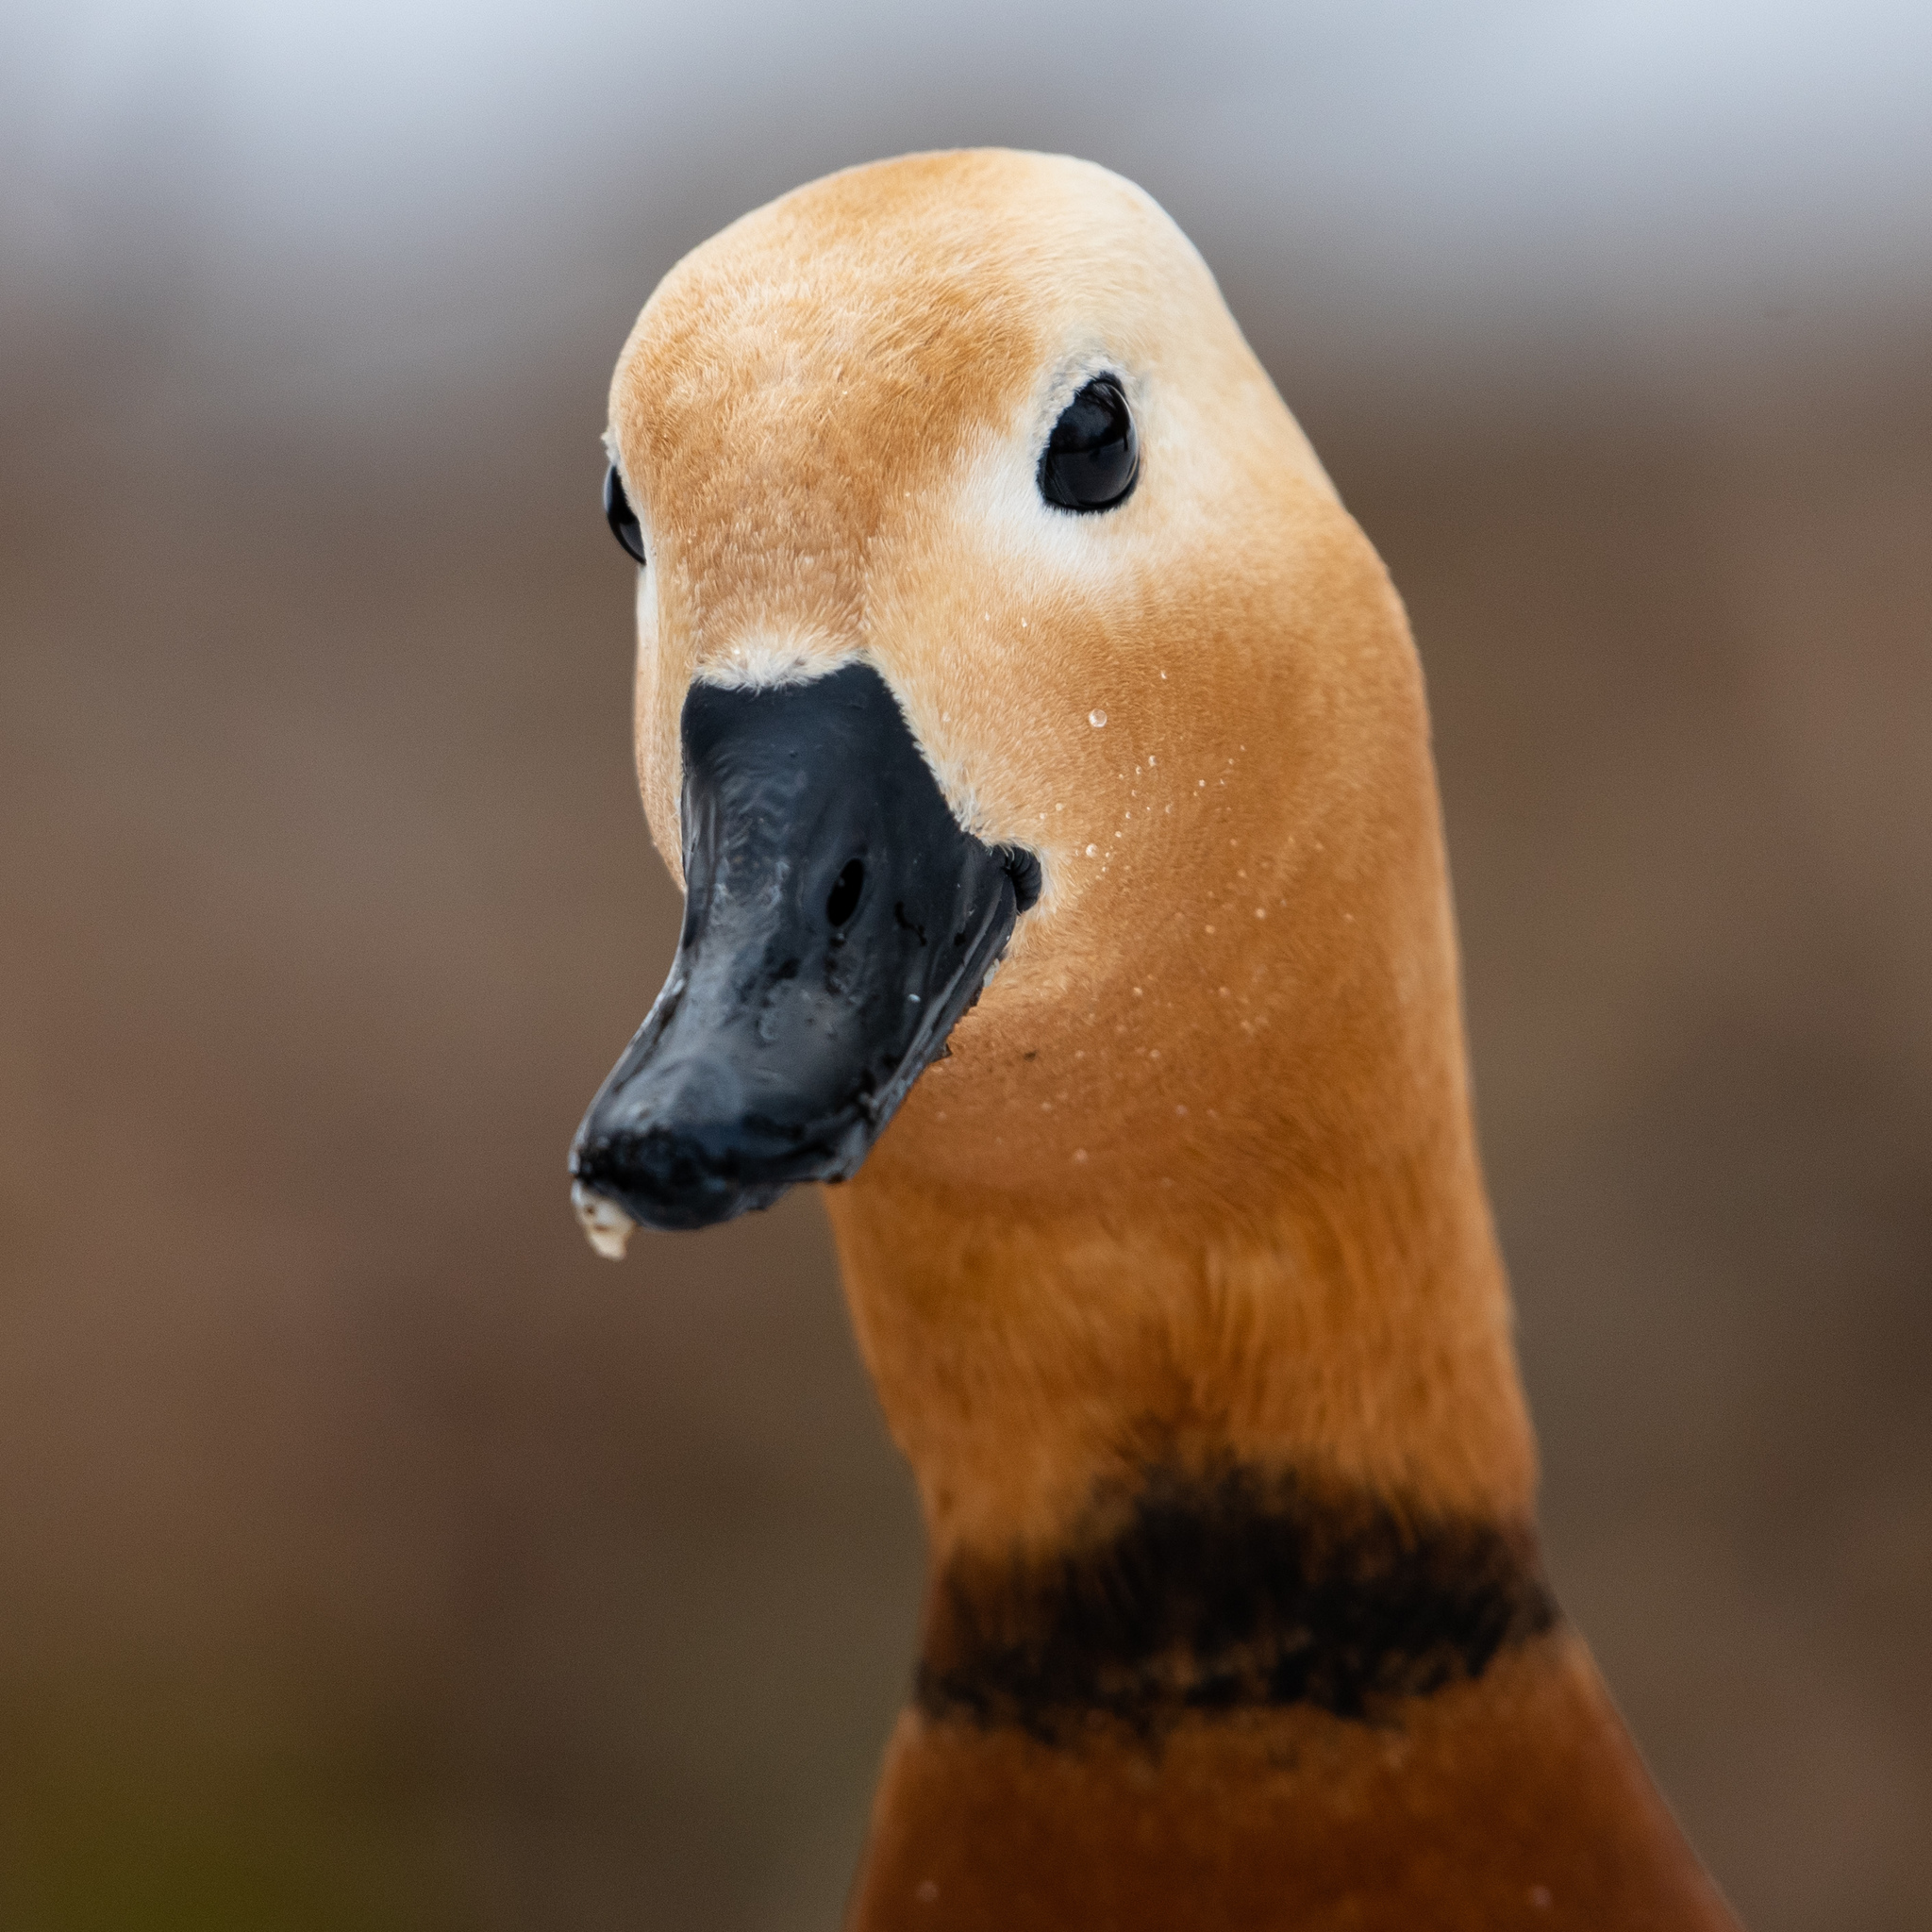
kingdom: Animalia
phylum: Chordata
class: Aves
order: Anseriformes
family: Anatidae
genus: Tadorna
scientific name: Tadorna ferruginea
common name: Ruddy shelduck
